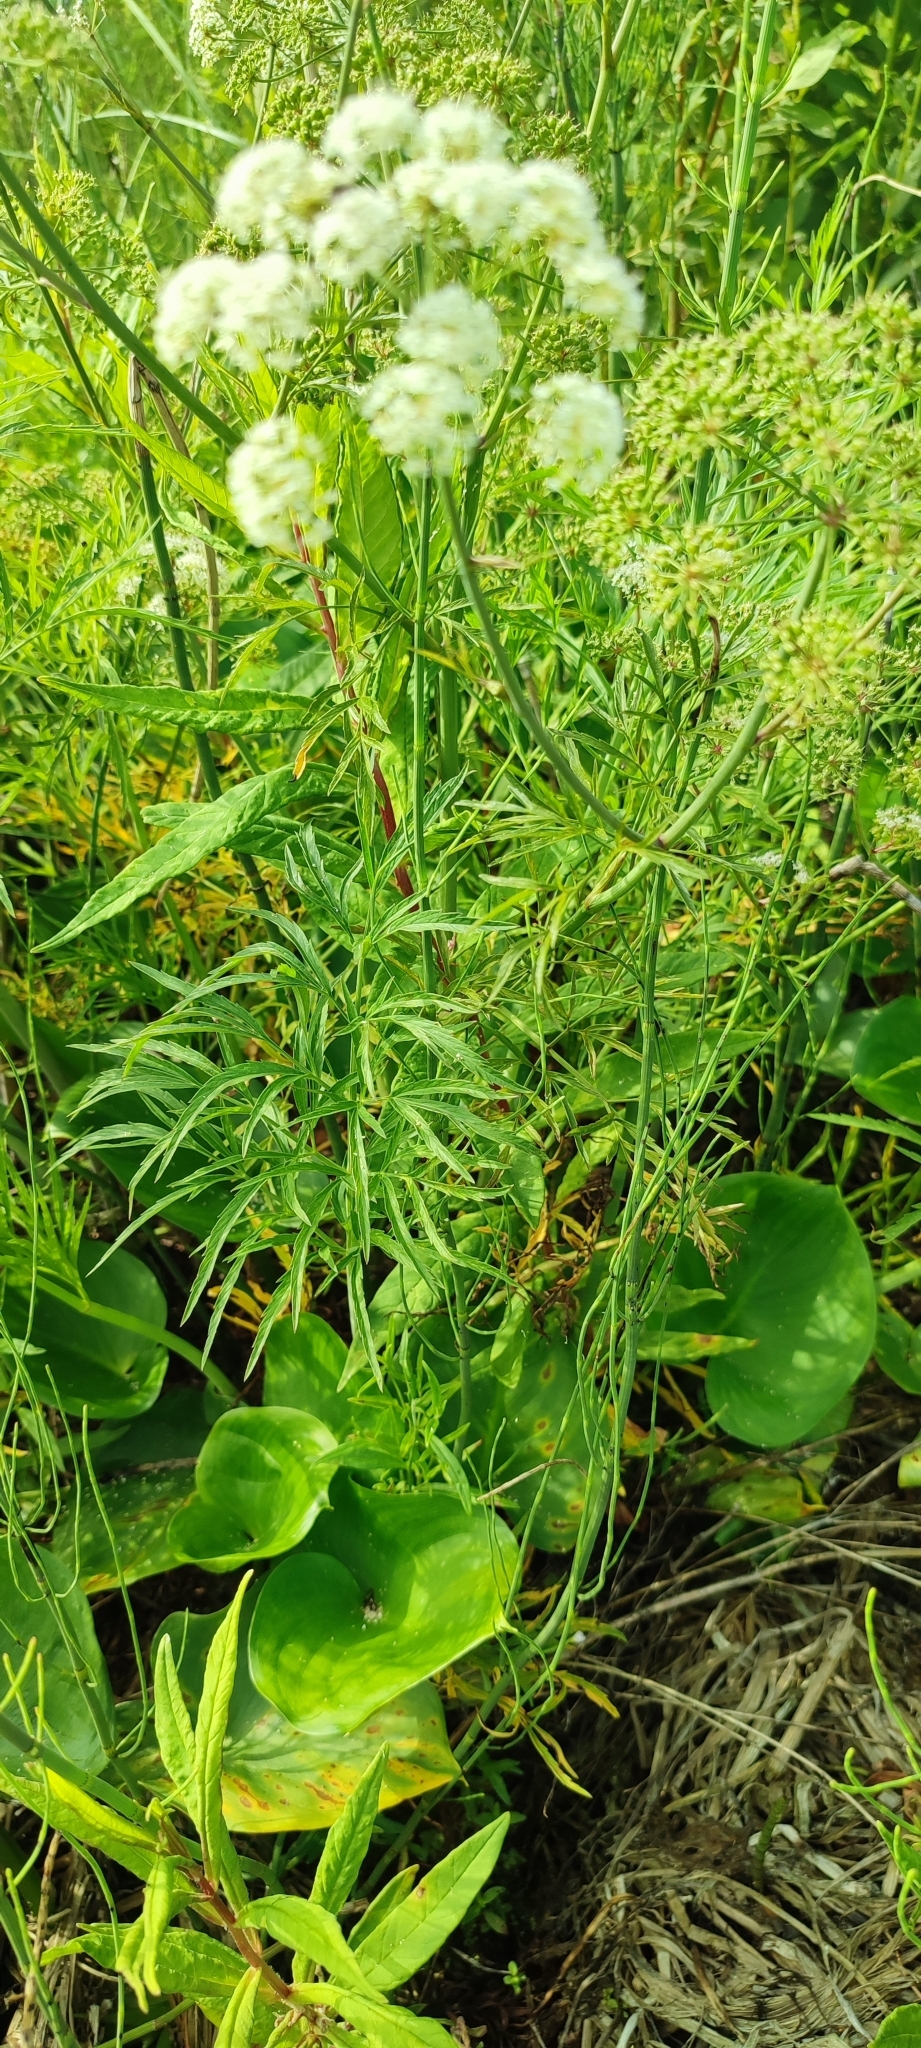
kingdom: Plantae
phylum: Tracheophyta
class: Magnoliopsida
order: Apiales
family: Apiaceae
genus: Cicuta
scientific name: Cicuta virosa
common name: Cowbane
